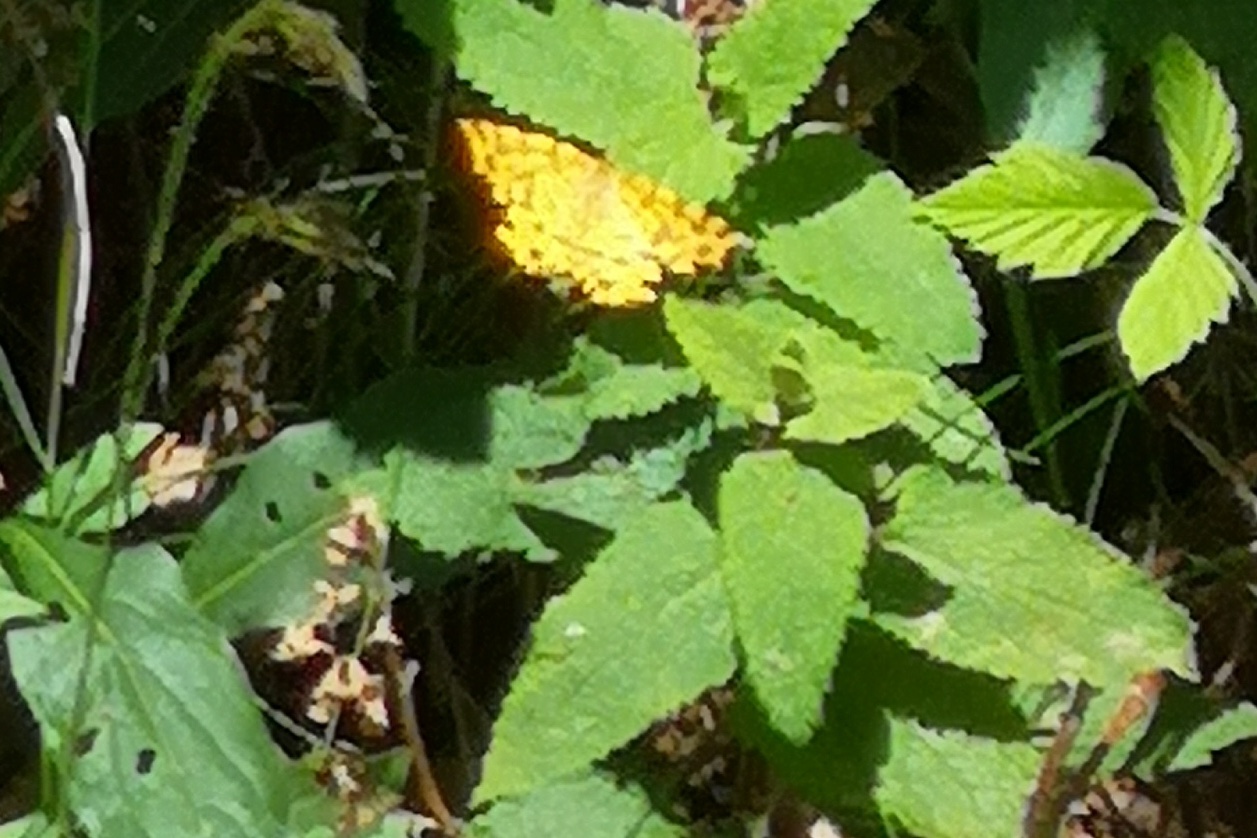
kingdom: Animalia
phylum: Arthropoda
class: Insecta
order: Lepidoptera
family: Geometridae
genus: Pseudopanthera
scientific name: Pseudopanthera macularia
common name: Speckled yellow
